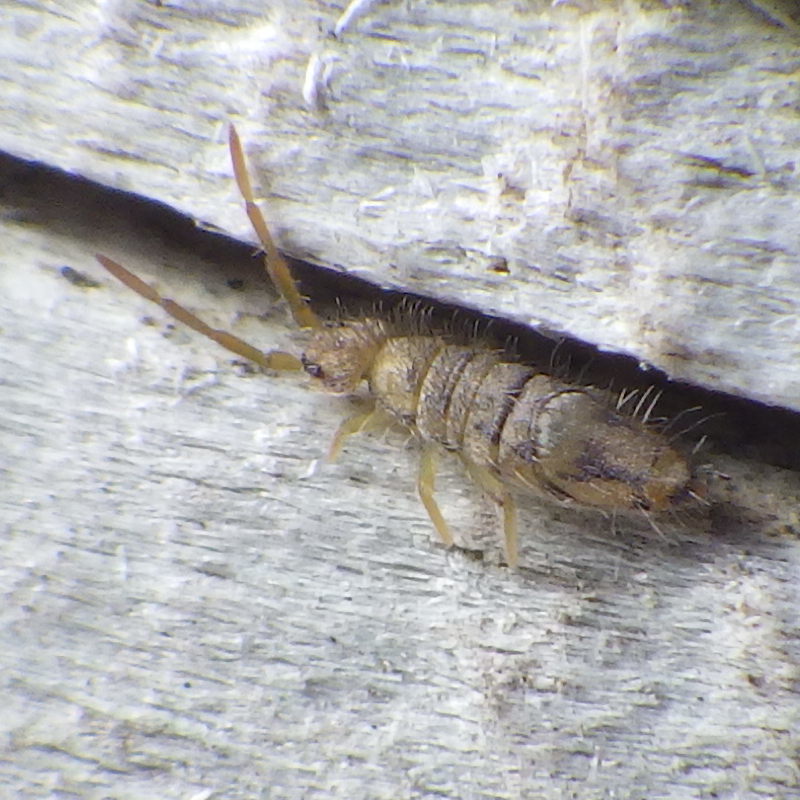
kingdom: Animalia
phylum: Arthropoda
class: Collembola
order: Entomobryomorpha
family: Entomobryidae
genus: Entomobrya
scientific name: Entomobrya nivalis
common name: Cosmopolitan springtail
